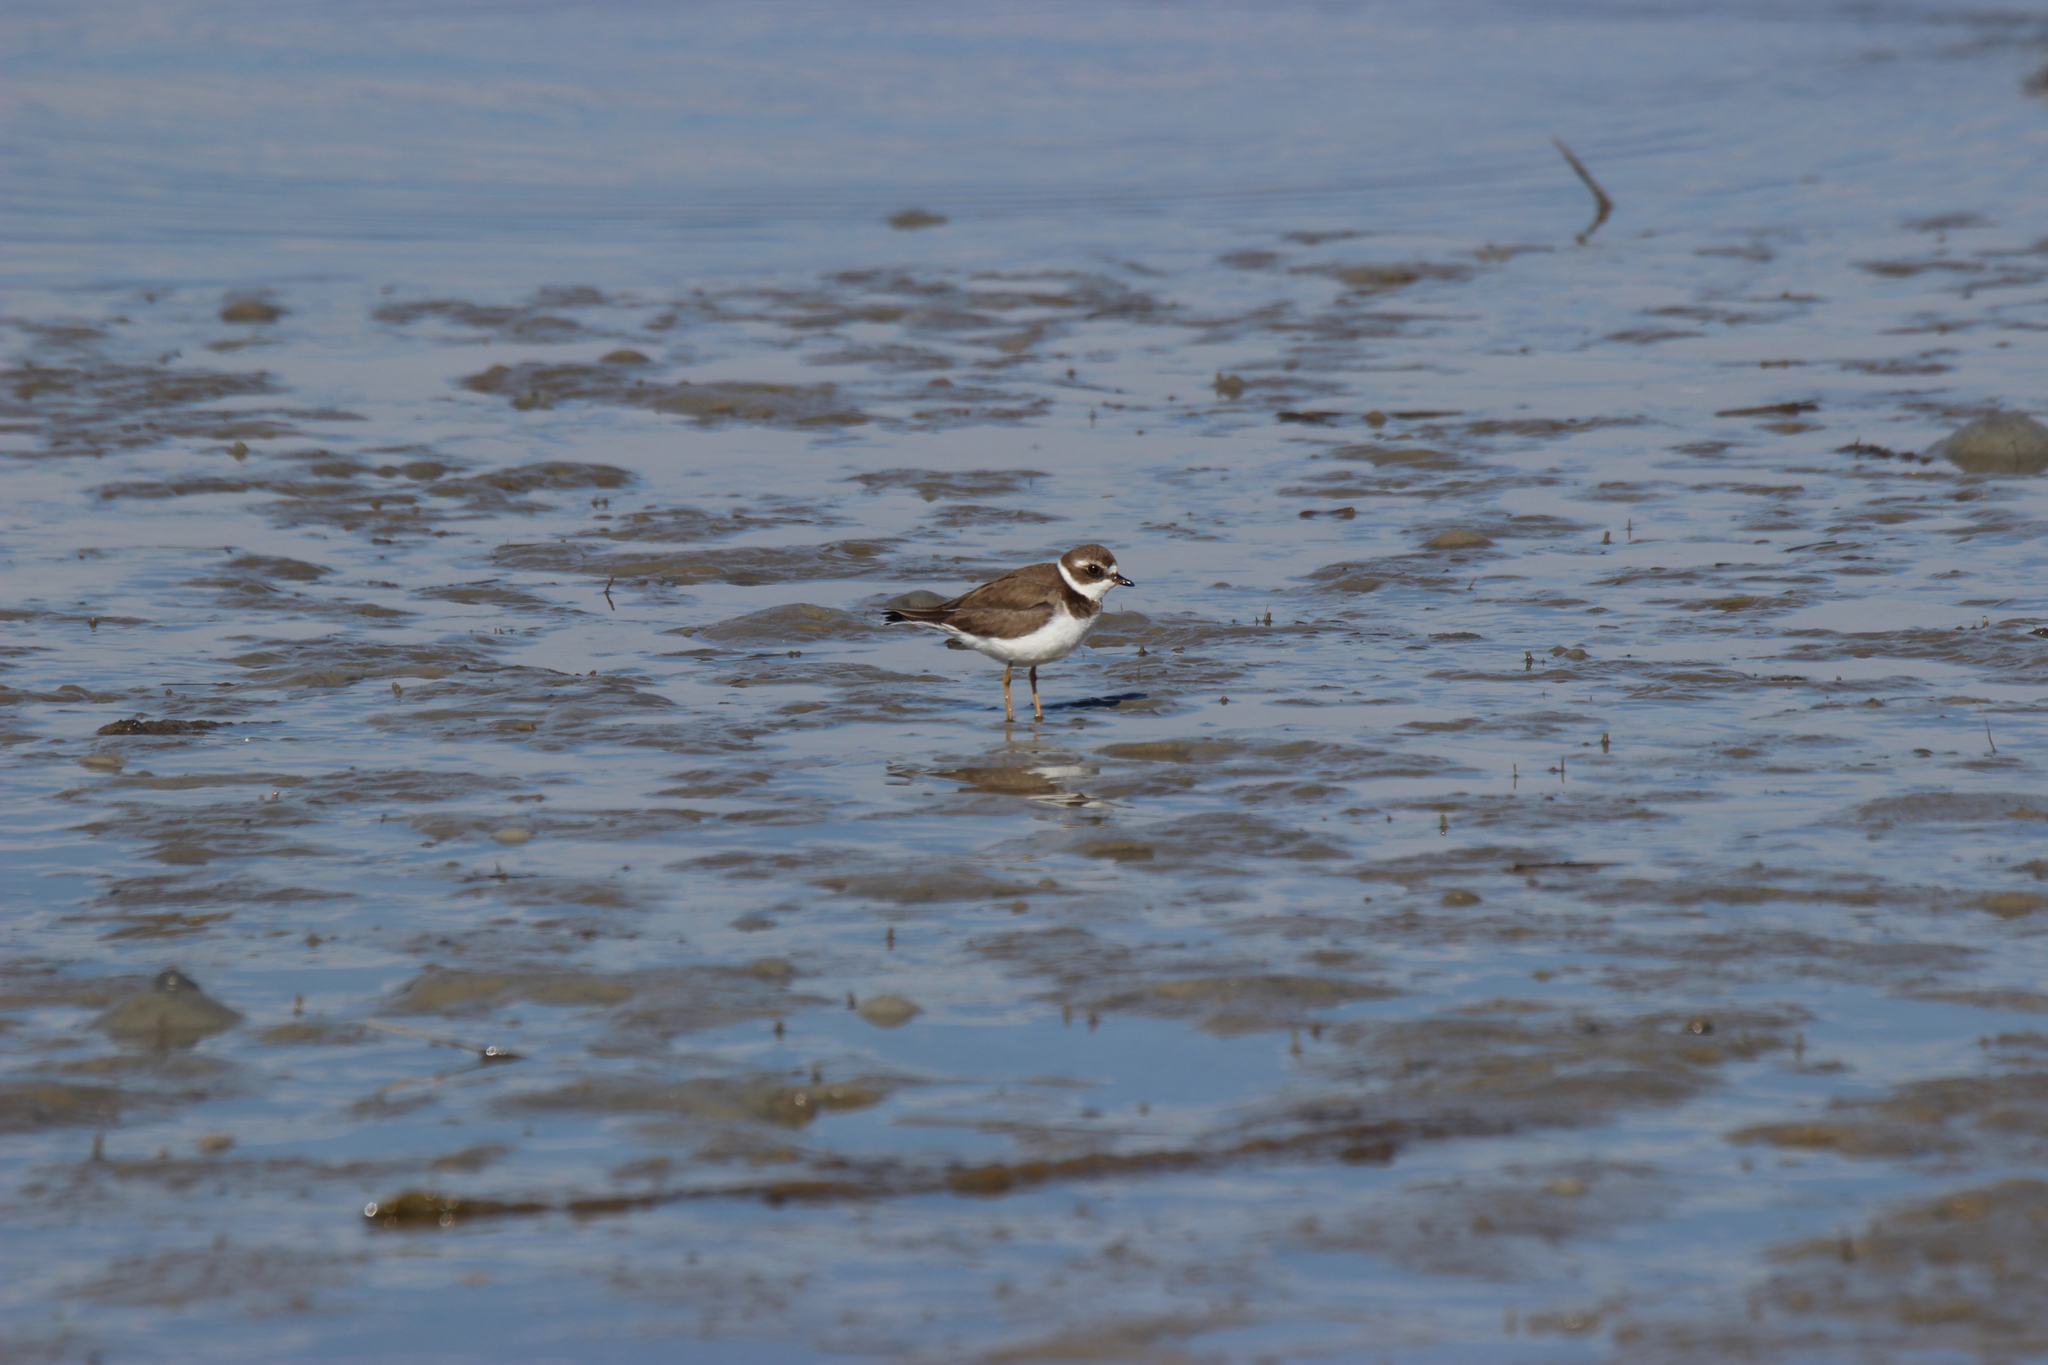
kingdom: Animalia
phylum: Chordata
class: Aves
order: Charadriiformes
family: Charadriidae
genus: Charadrius
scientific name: Charadrius semipalmatus
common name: Semipalmated plover
